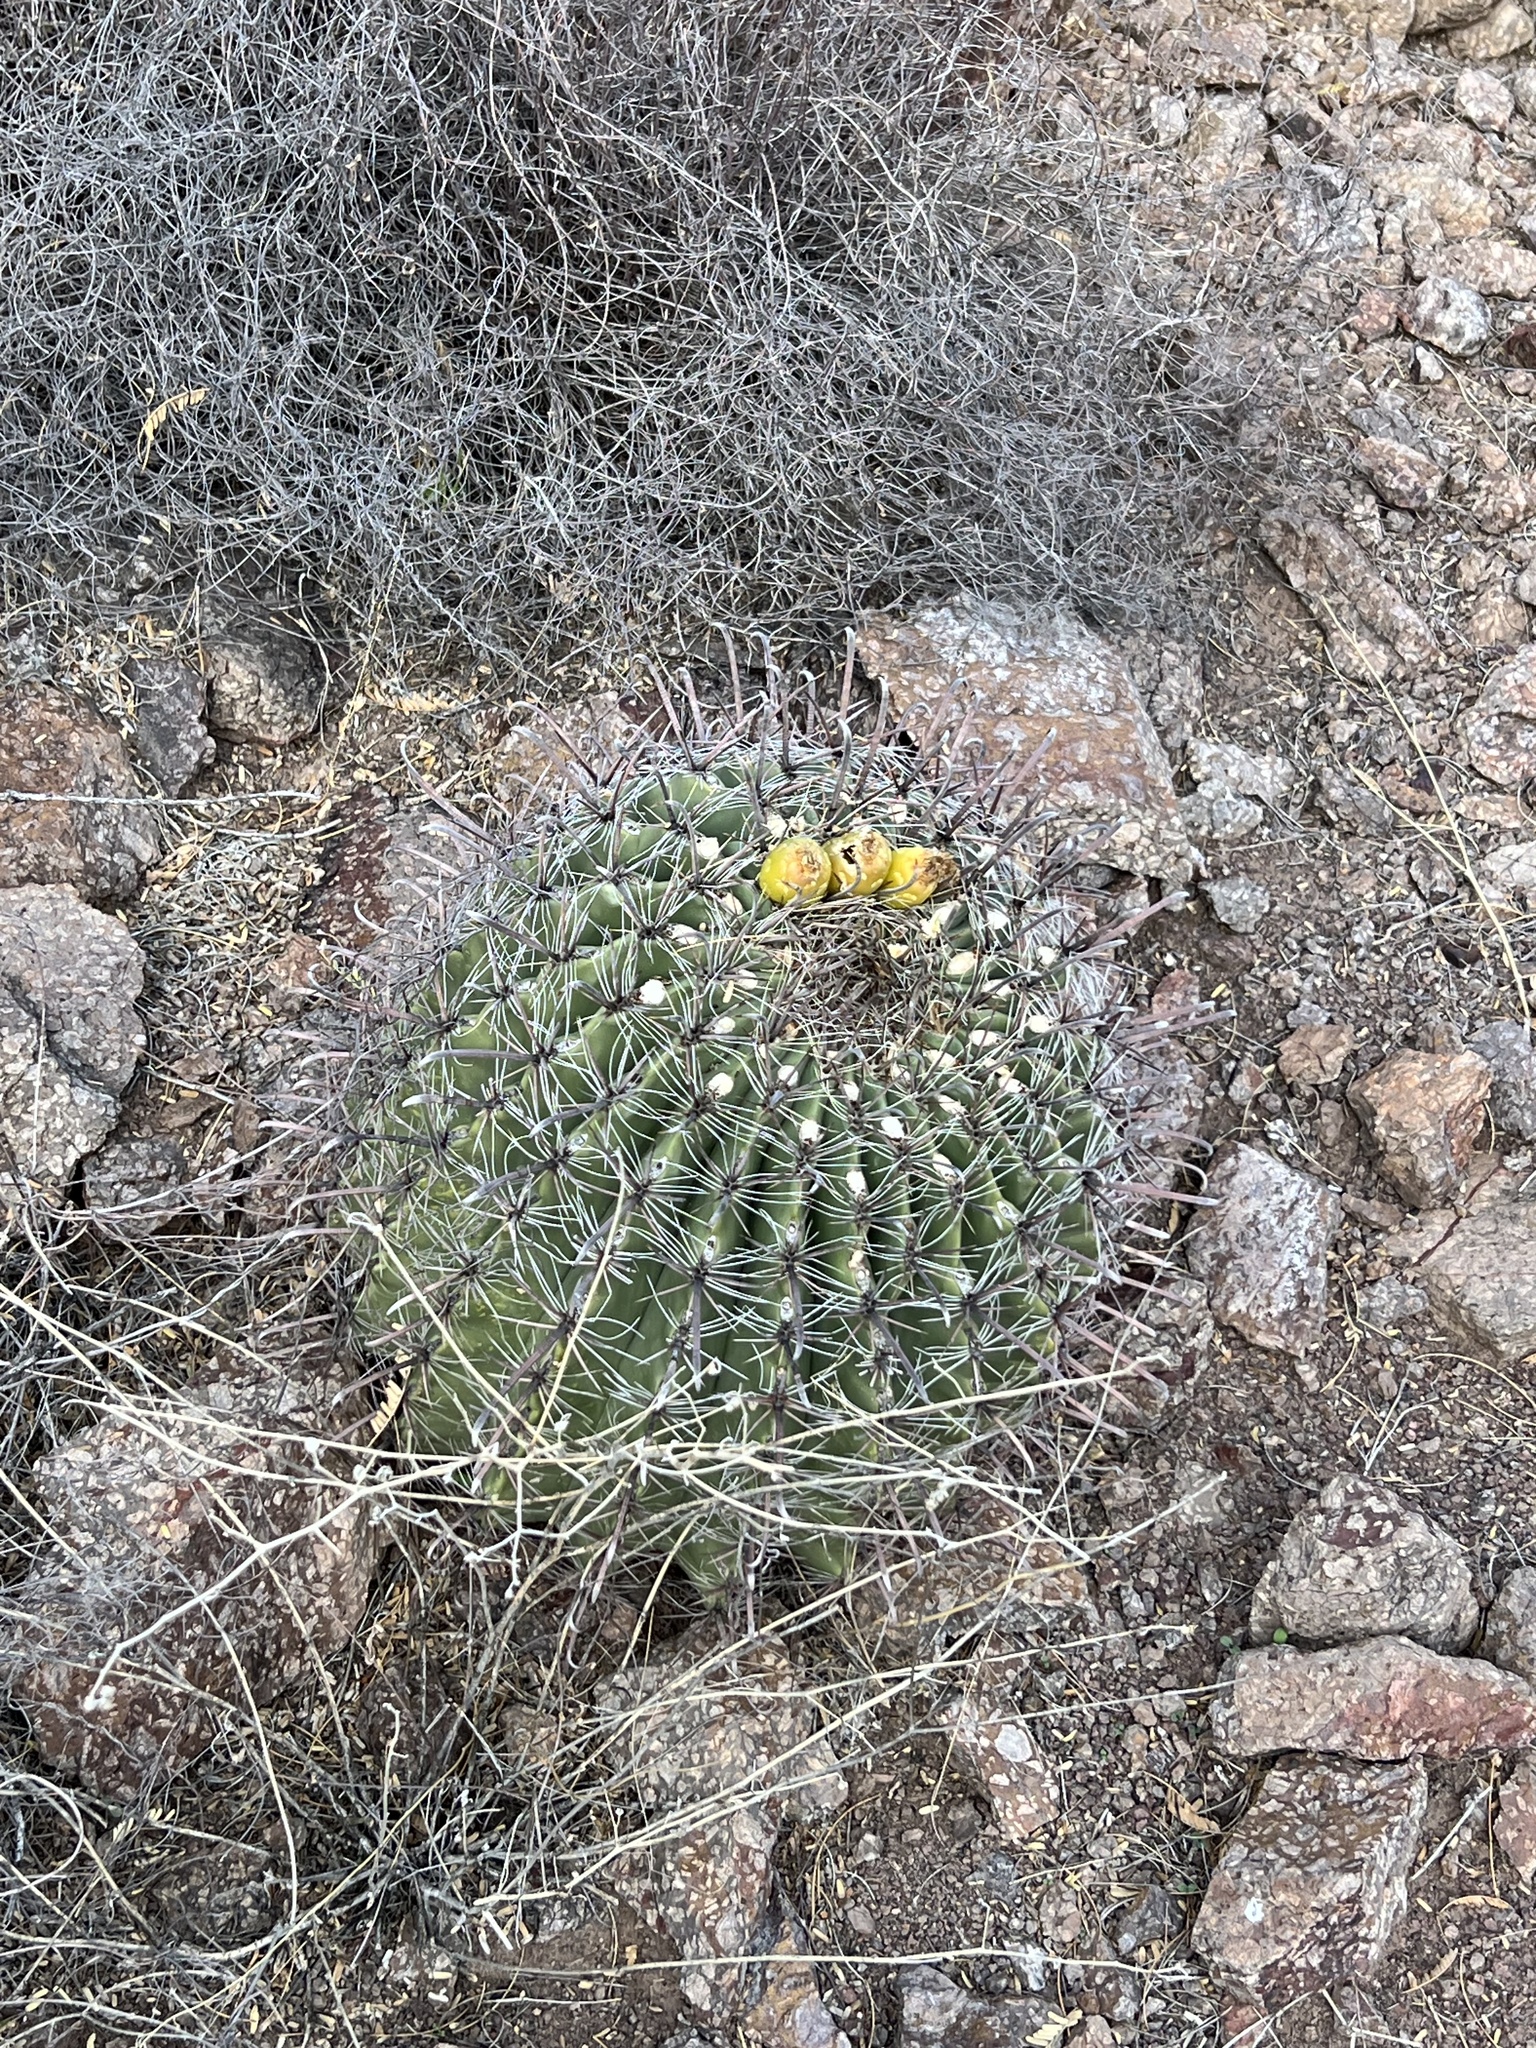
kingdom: Plantae
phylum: Tracheophyta
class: Magnoliopsida
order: Caryophyllales
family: Cactaceae
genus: Ferocactus
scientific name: Ferocactus wislizeni
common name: Candy barrel cactus
